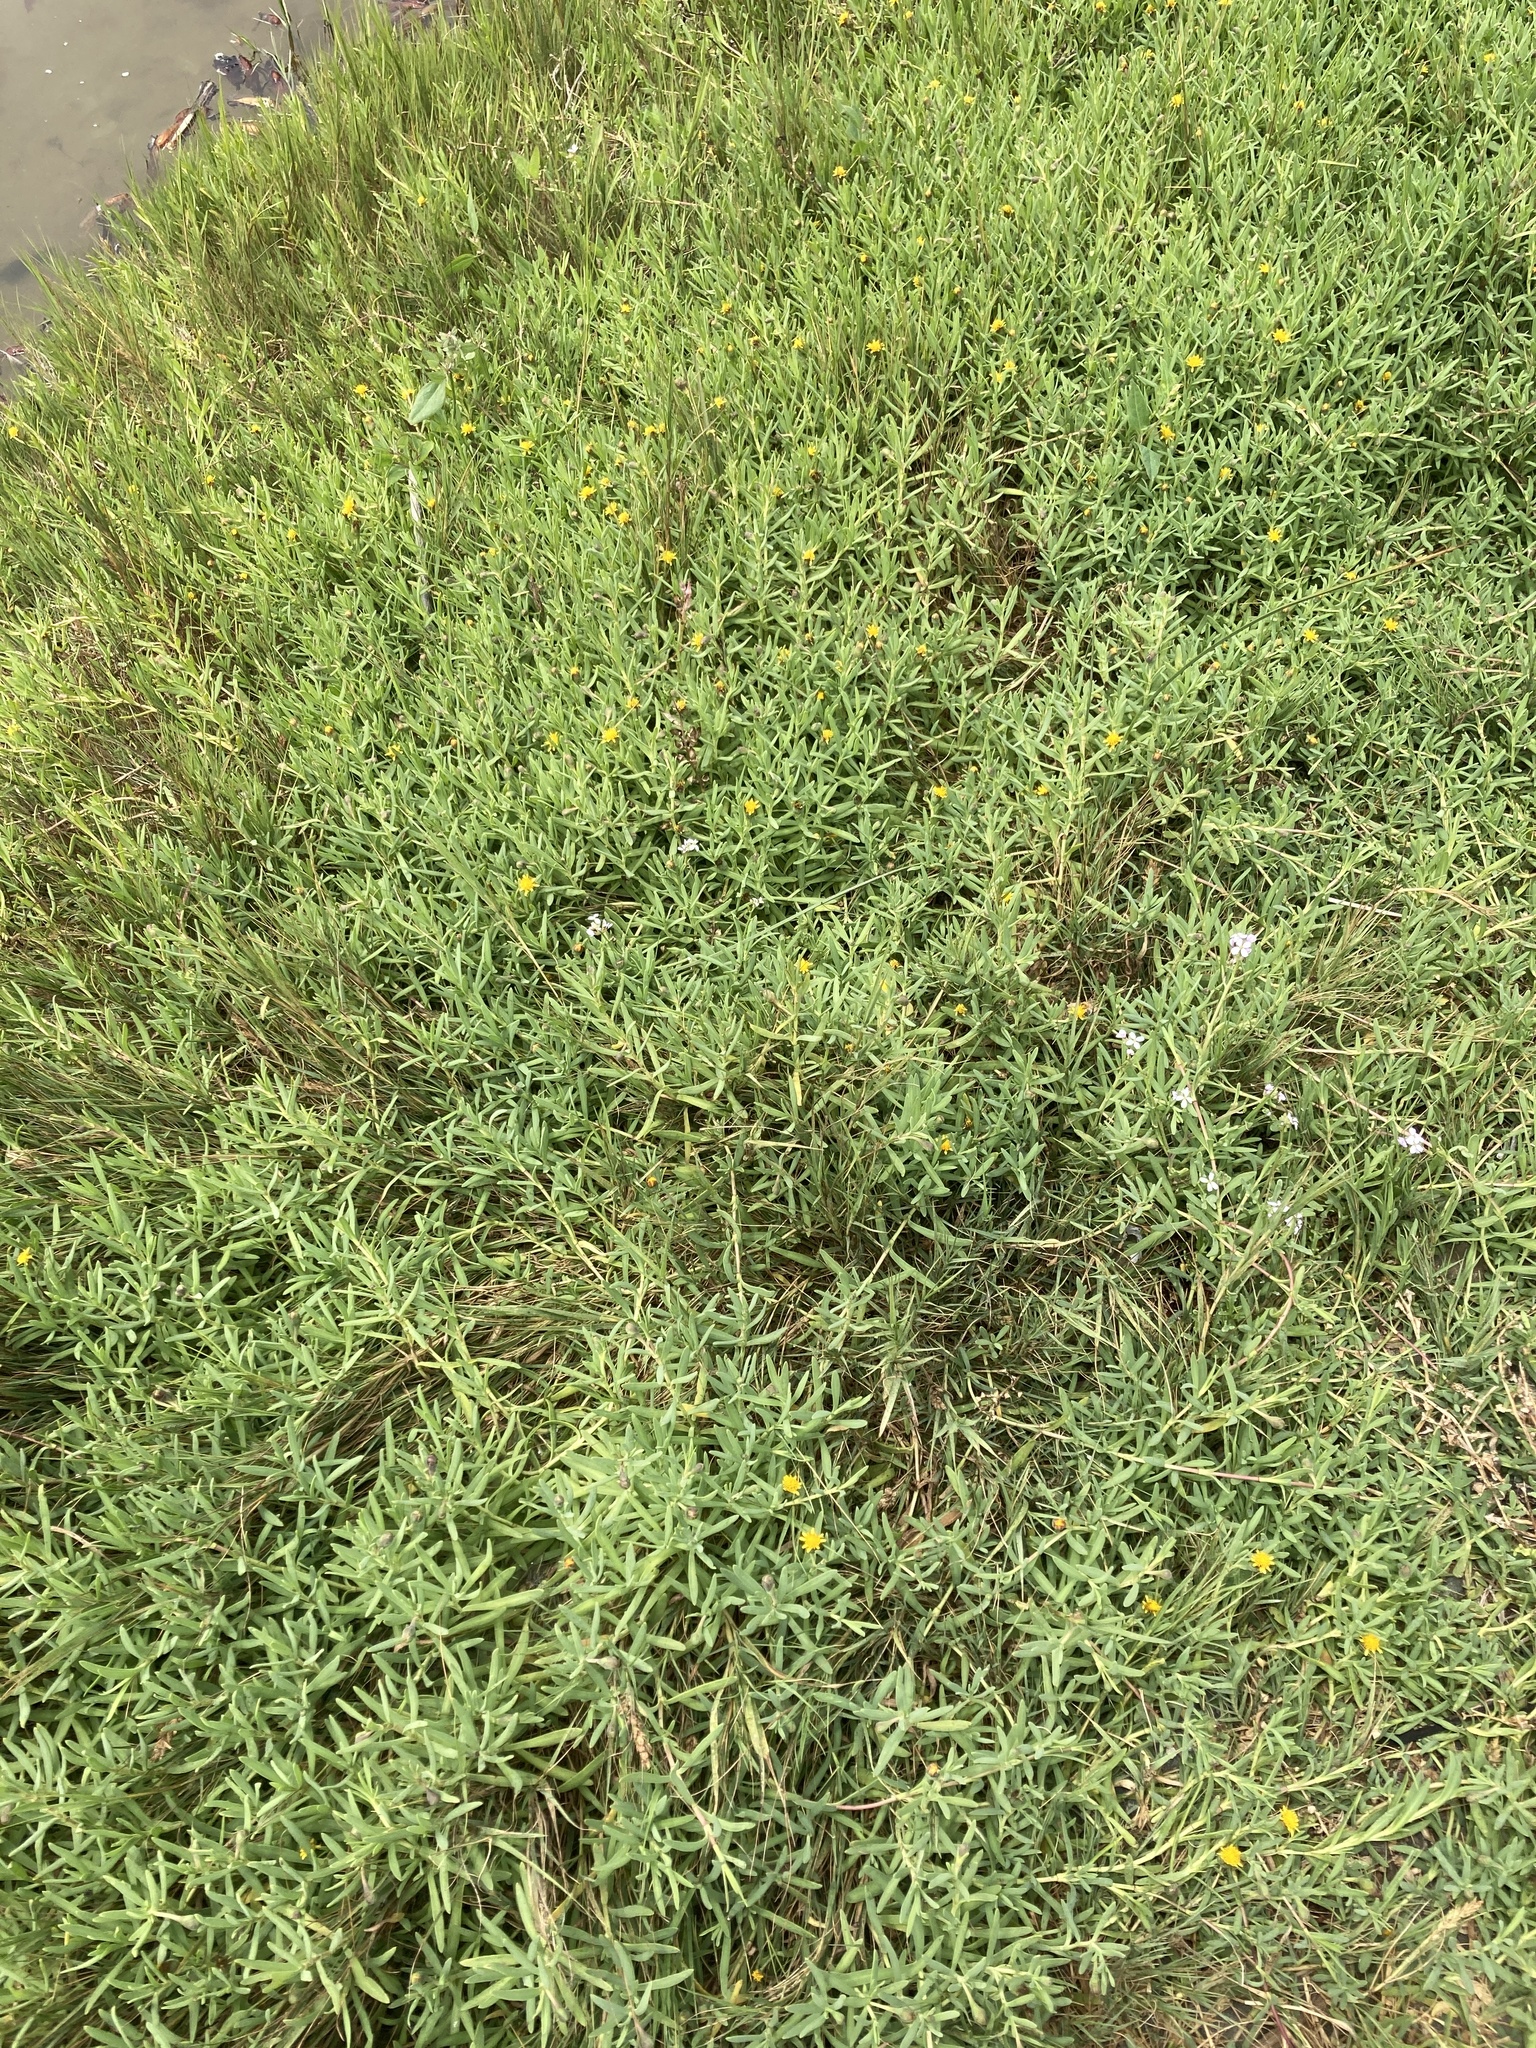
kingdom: Plantae
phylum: Tracheophyta
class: Magnoliopsida
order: Asterales
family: Asteraceae
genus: Jaumea
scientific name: Jaumea carnosa
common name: Fleshy jaumea
